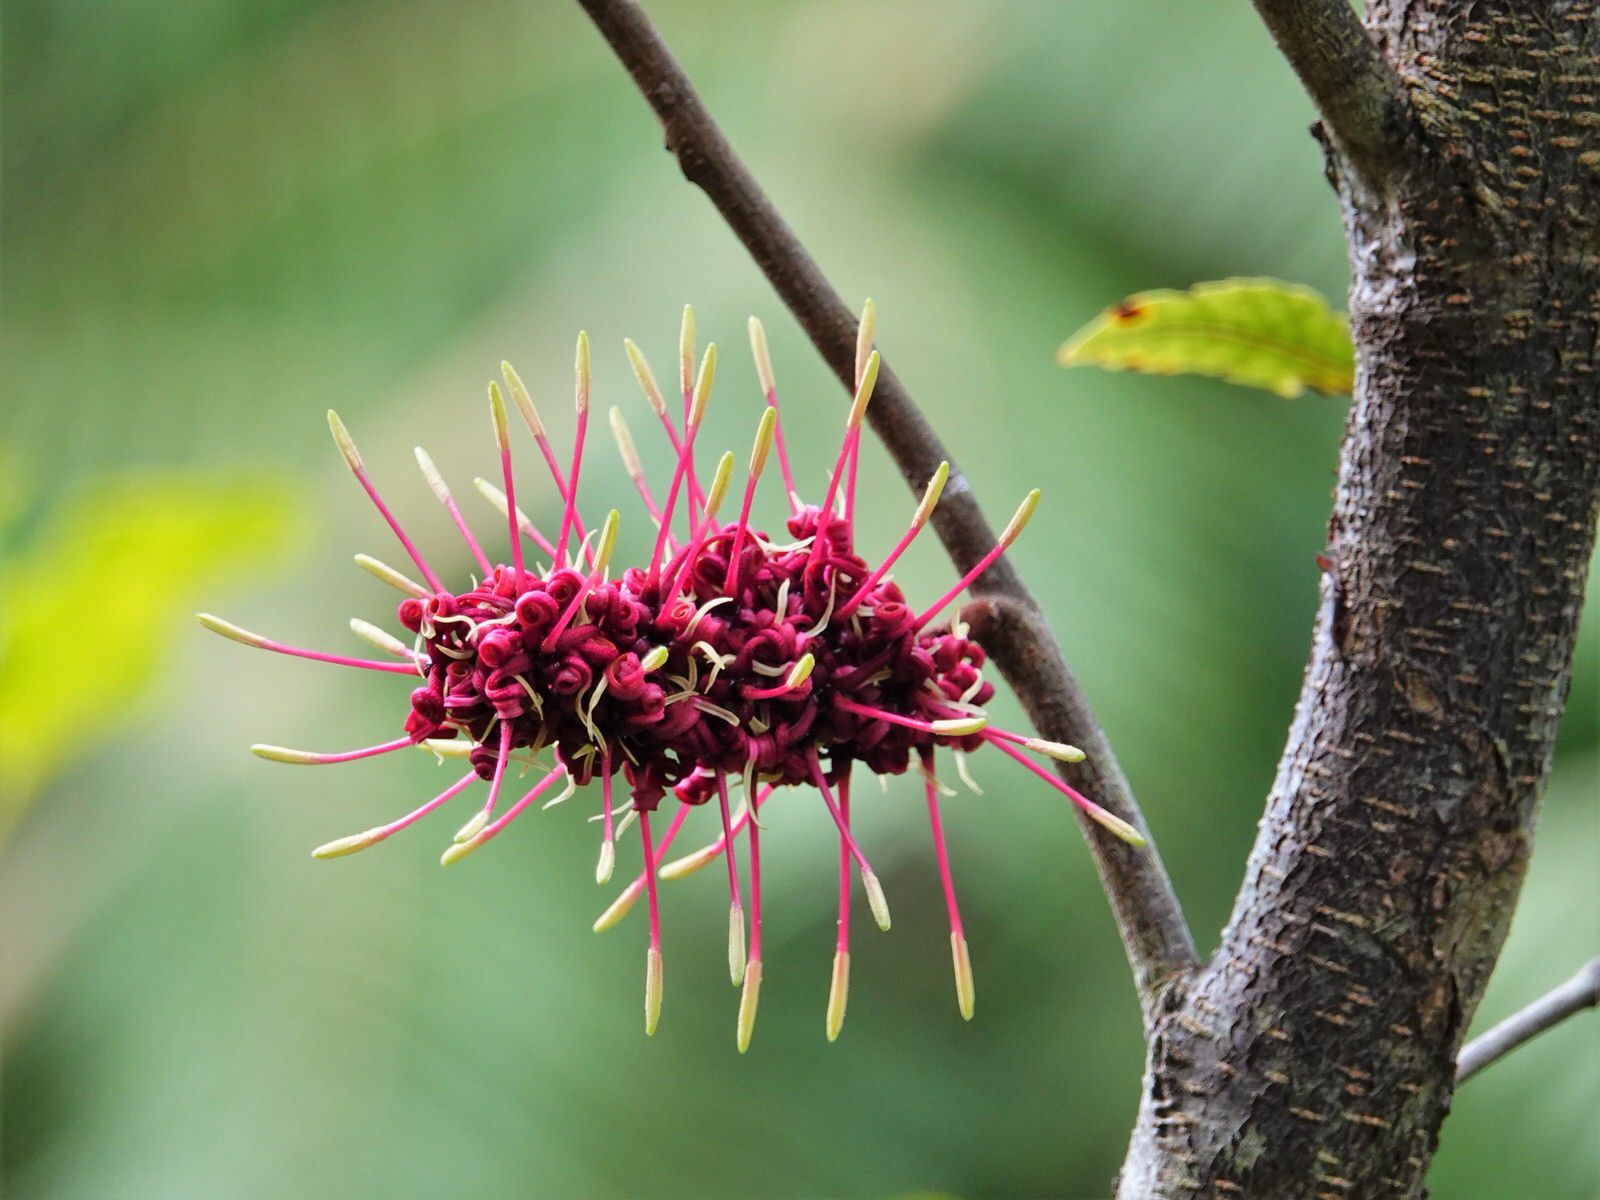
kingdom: Plantae
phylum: Tracheophyta
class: Magnoliopsida
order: Proteales
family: Proteaceae
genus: Knightia
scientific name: Knightia excelsa
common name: New zealand-honeysuckle
